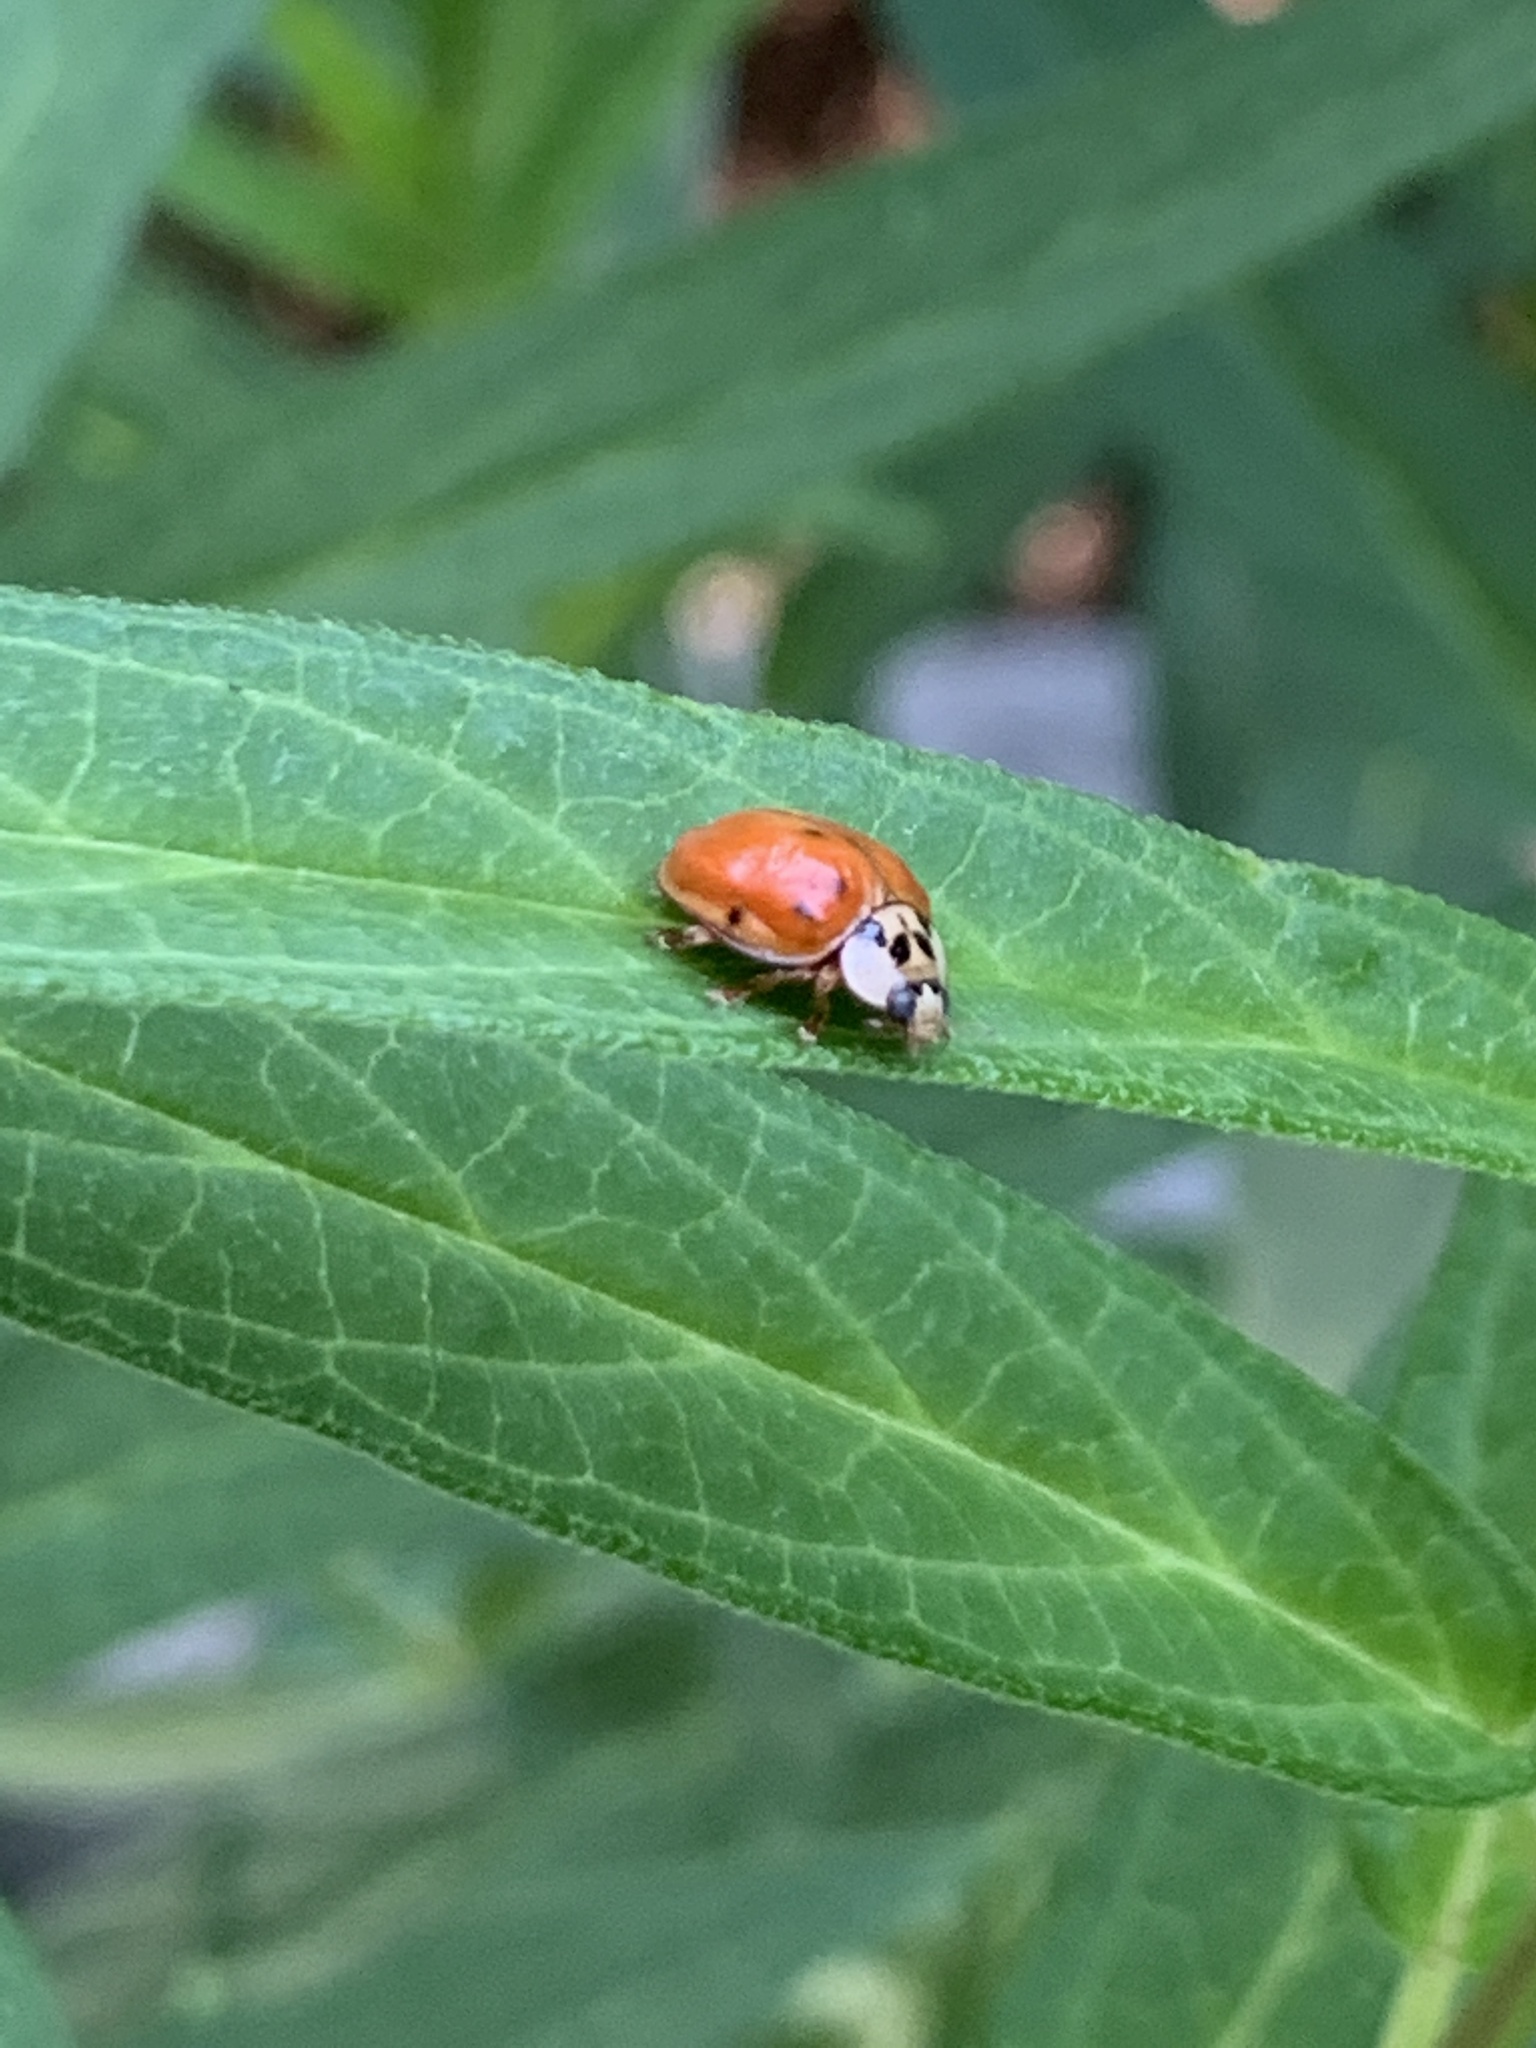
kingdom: Animalia
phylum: Arthropoda
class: Insecta
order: Coleoptera
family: Coccinellidae
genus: Harmonia
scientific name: Harmonia axyridis
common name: Harlequin ladybird
